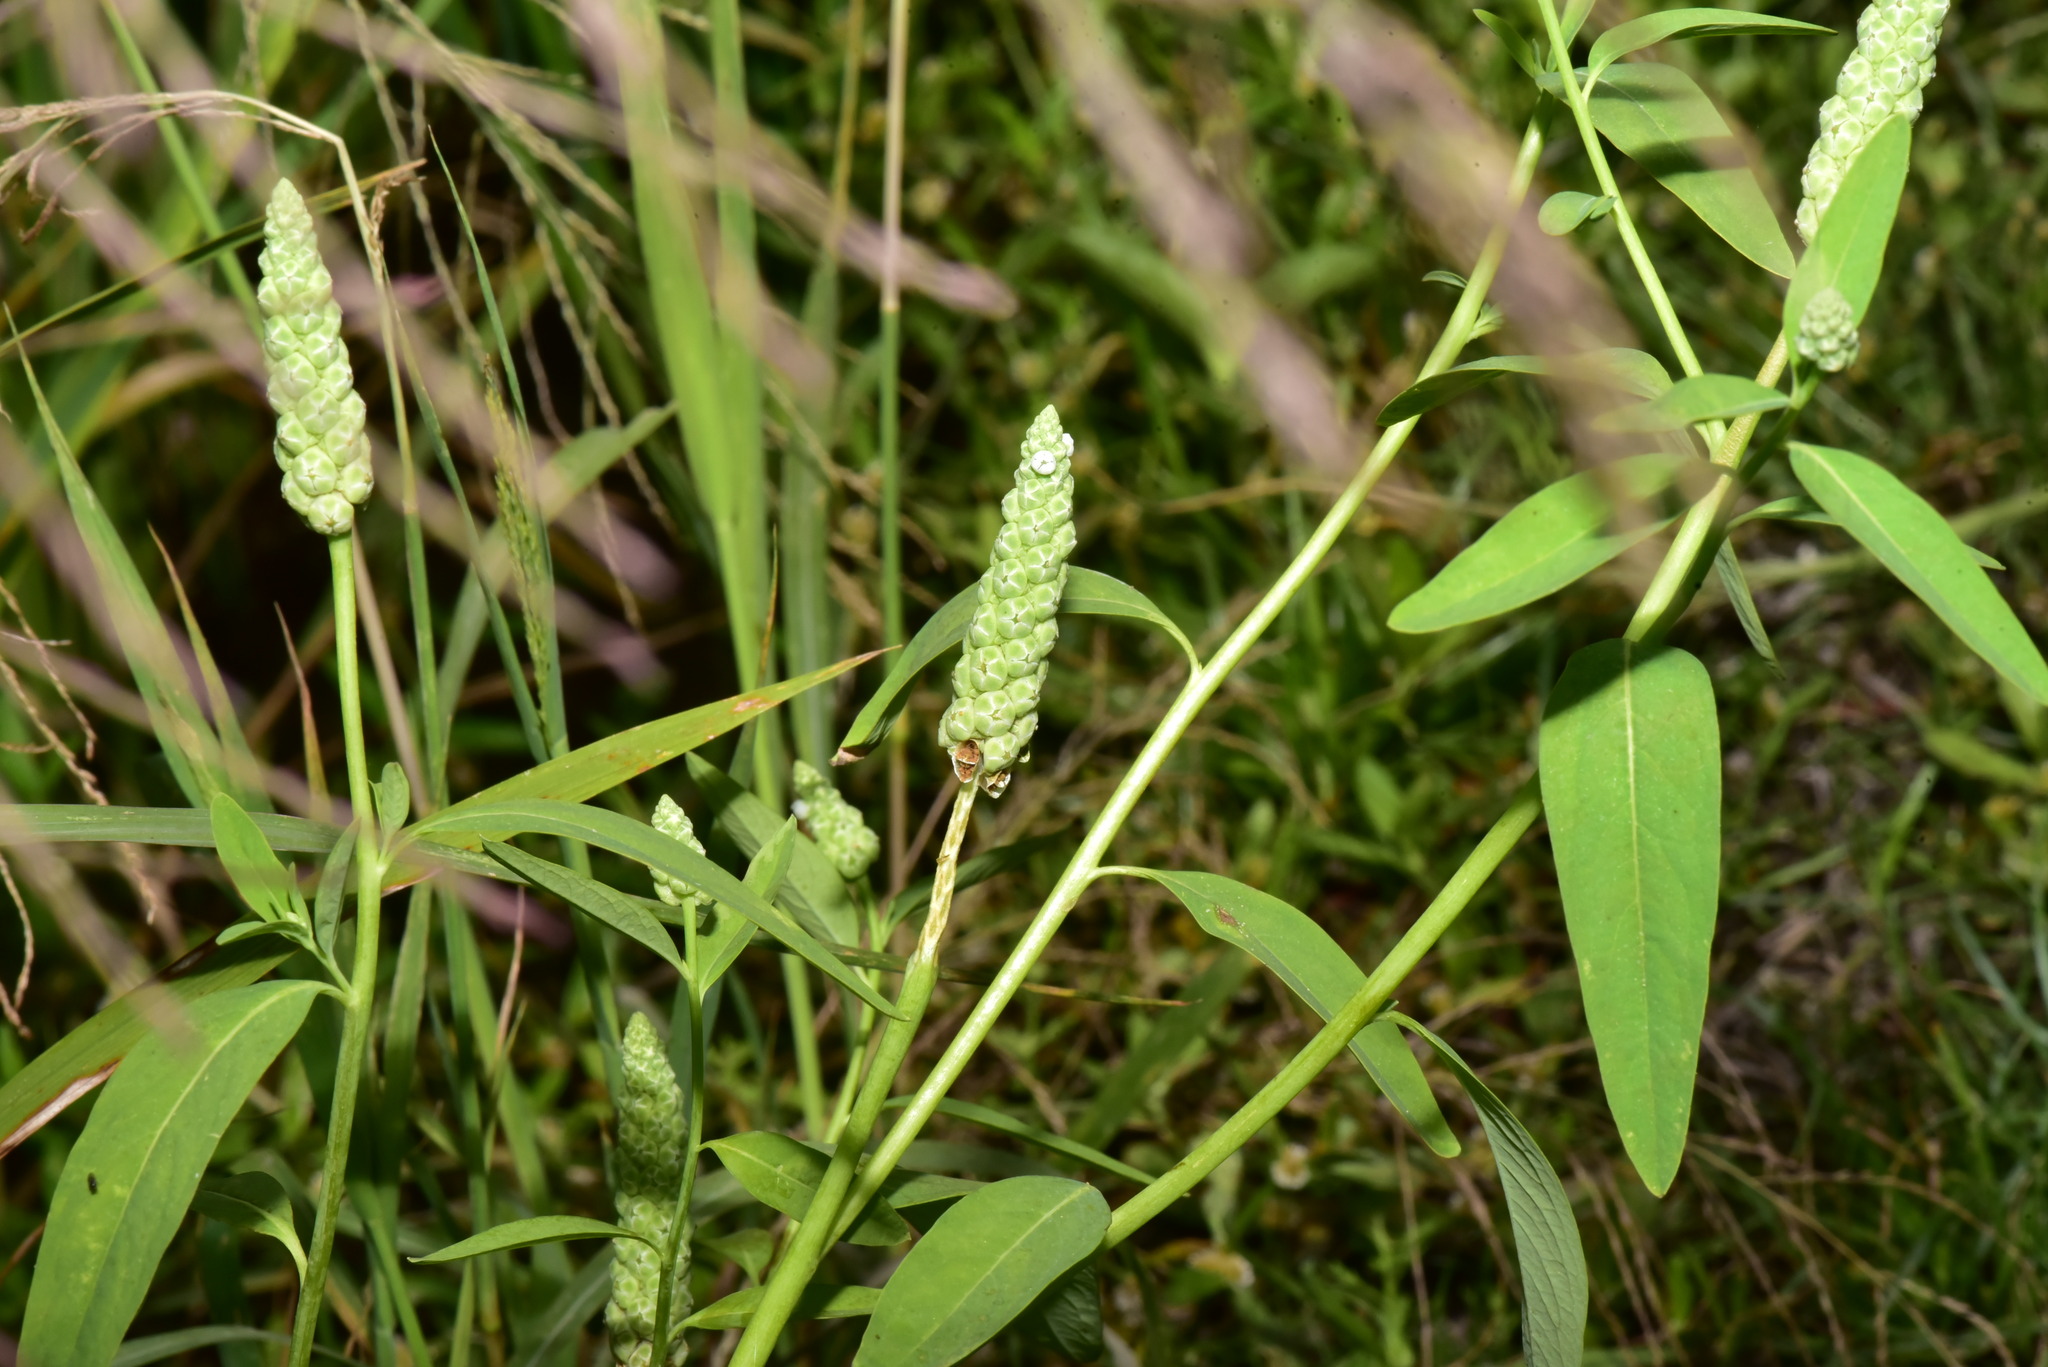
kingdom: Plantae
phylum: Tracheophyta
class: Magnoliopsida
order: Solanales
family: Sphenocleaceae
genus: Sphenoclea
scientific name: Sphenoclea zeylanica
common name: Chickenspike
